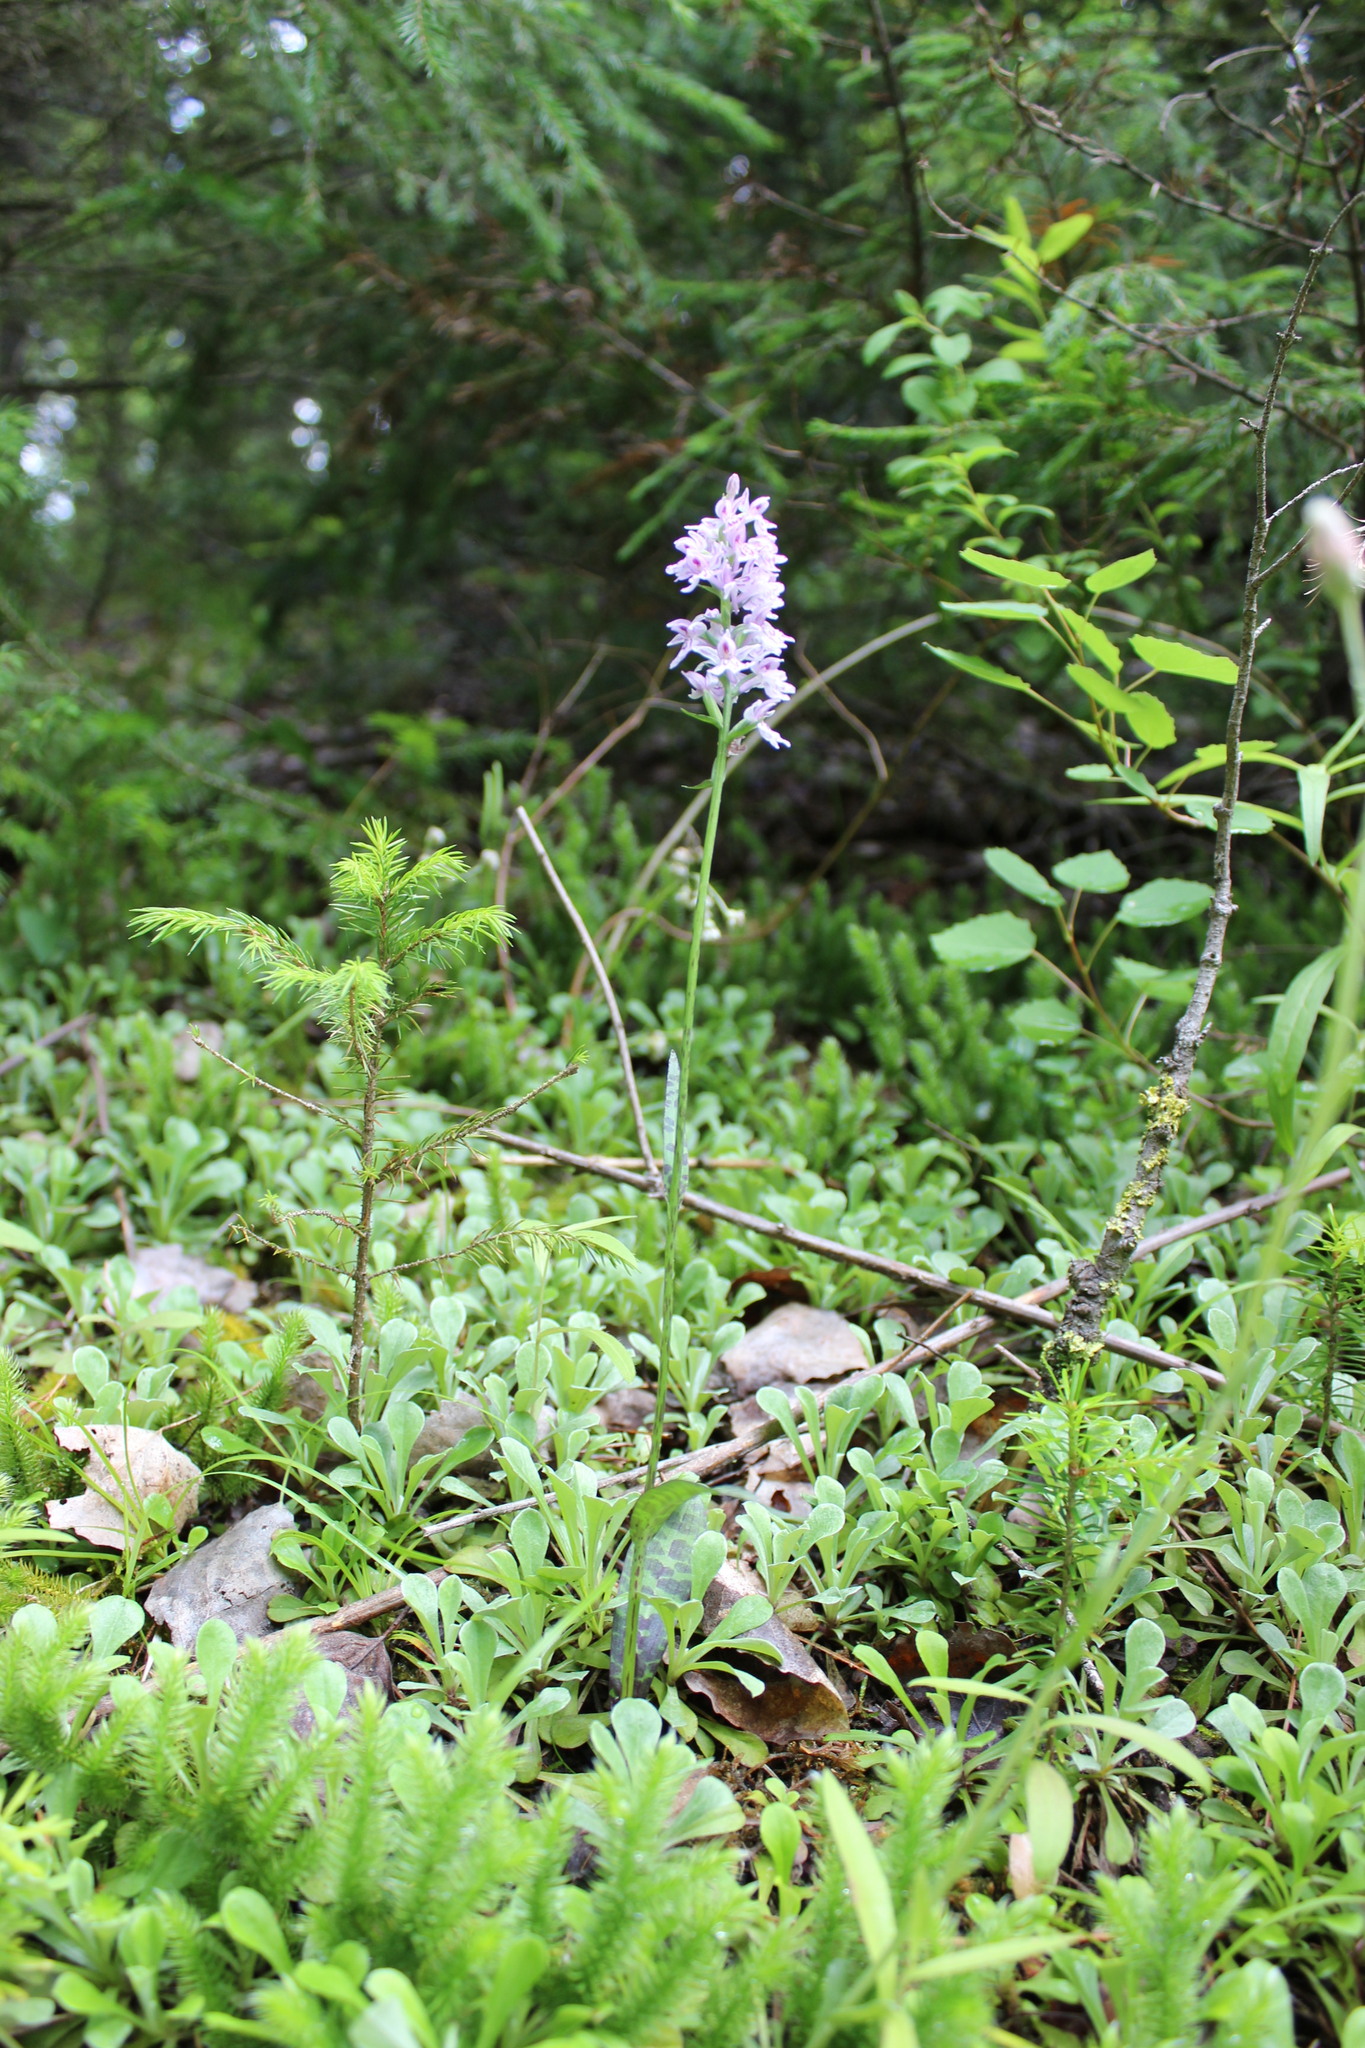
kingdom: Plantae
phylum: Tracheophyta
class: Liliopsida
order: Asparagales
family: Orchidaceae
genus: Dactylorhiza
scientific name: Dactylorhiza maculata
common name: Heath spotted-orchid
